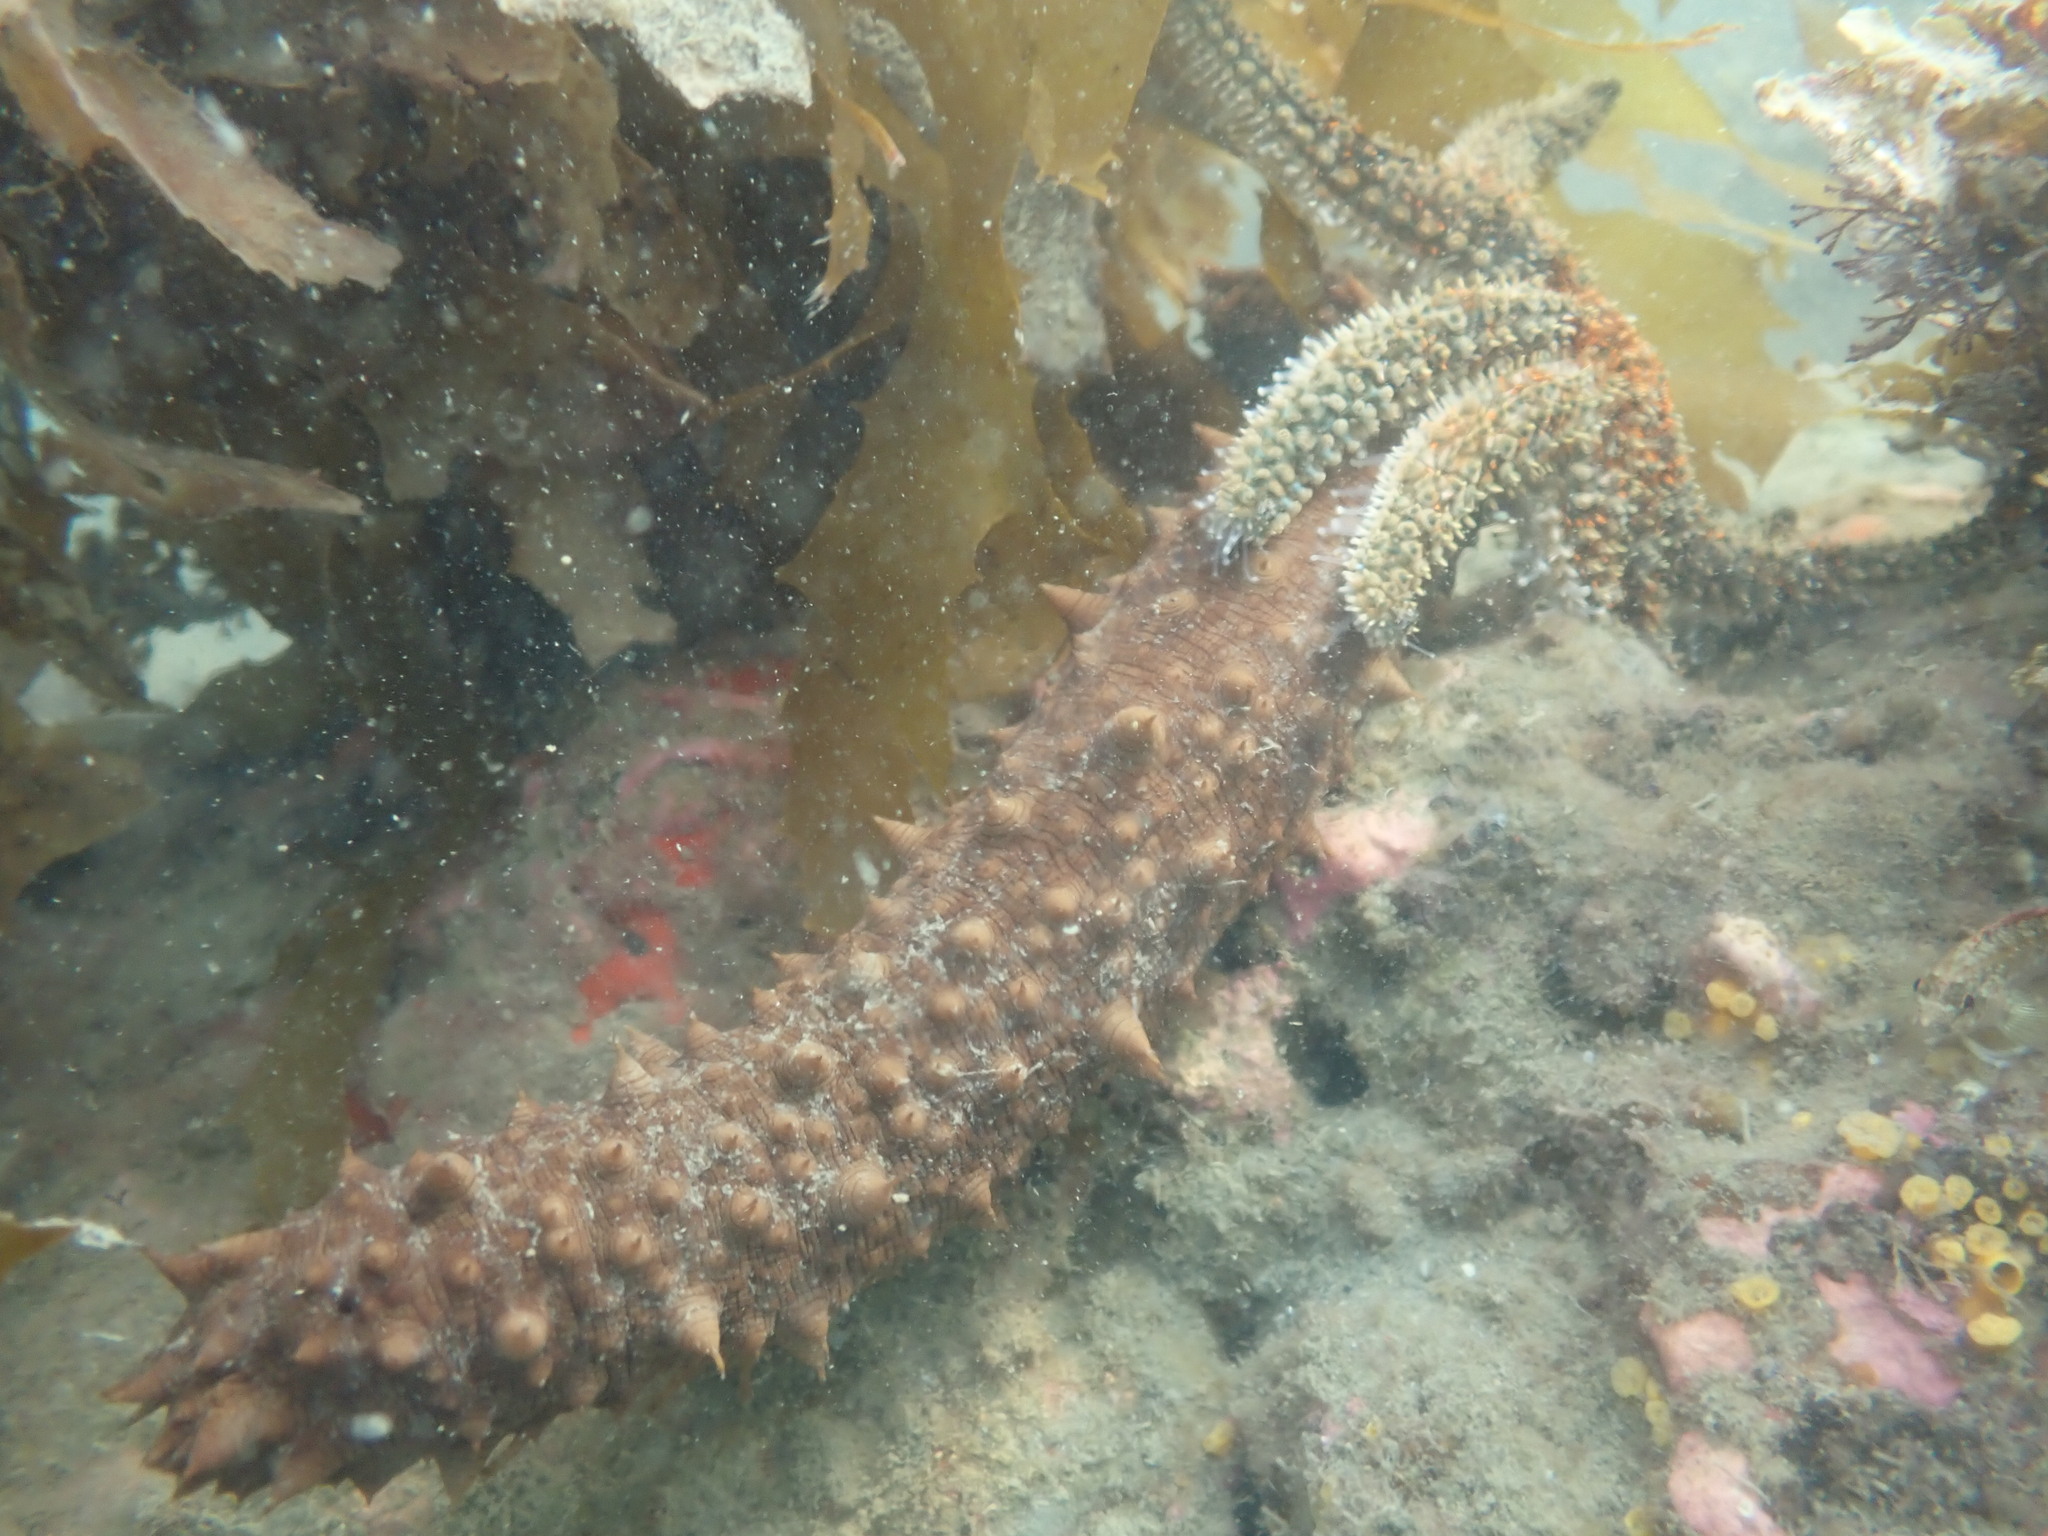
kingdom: Animalia
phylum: Echinodermata
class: Asteroidea
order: Forcipulatida
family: Asteriidae
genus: Coscinasterias
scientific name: Coscinasterias muricata
